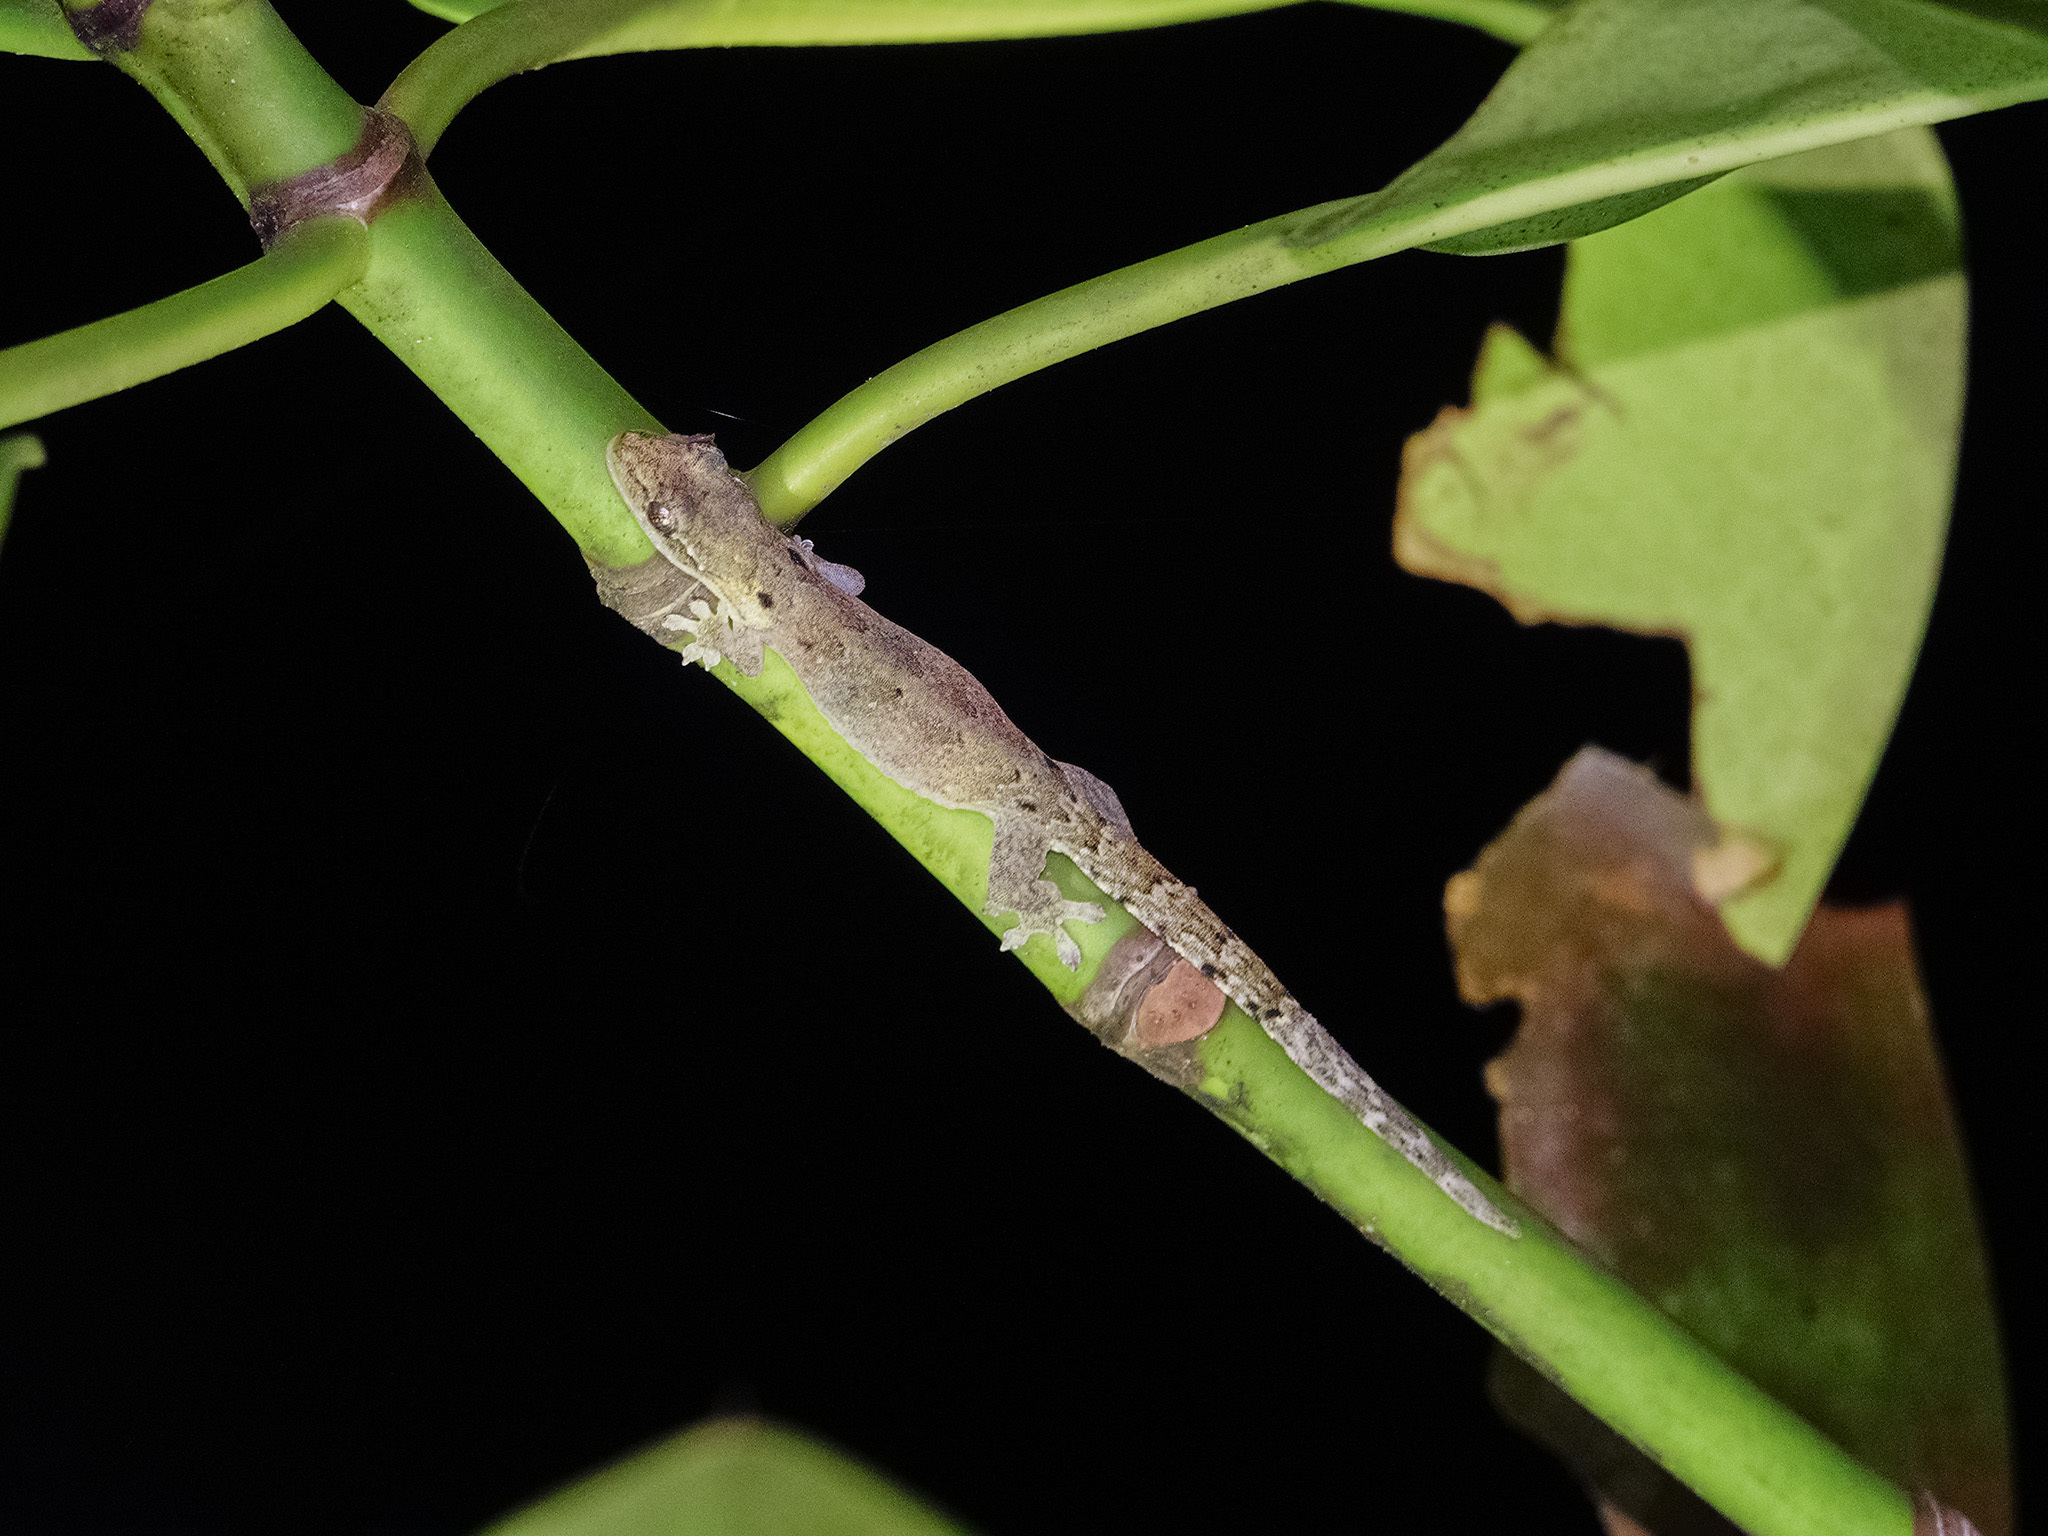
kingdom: Animalia
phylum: Chordata
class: Squamata
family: Gekkonidae
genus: Lepidodactylus
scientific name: Lepidodactylus lugubris
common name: Mourning gecko
